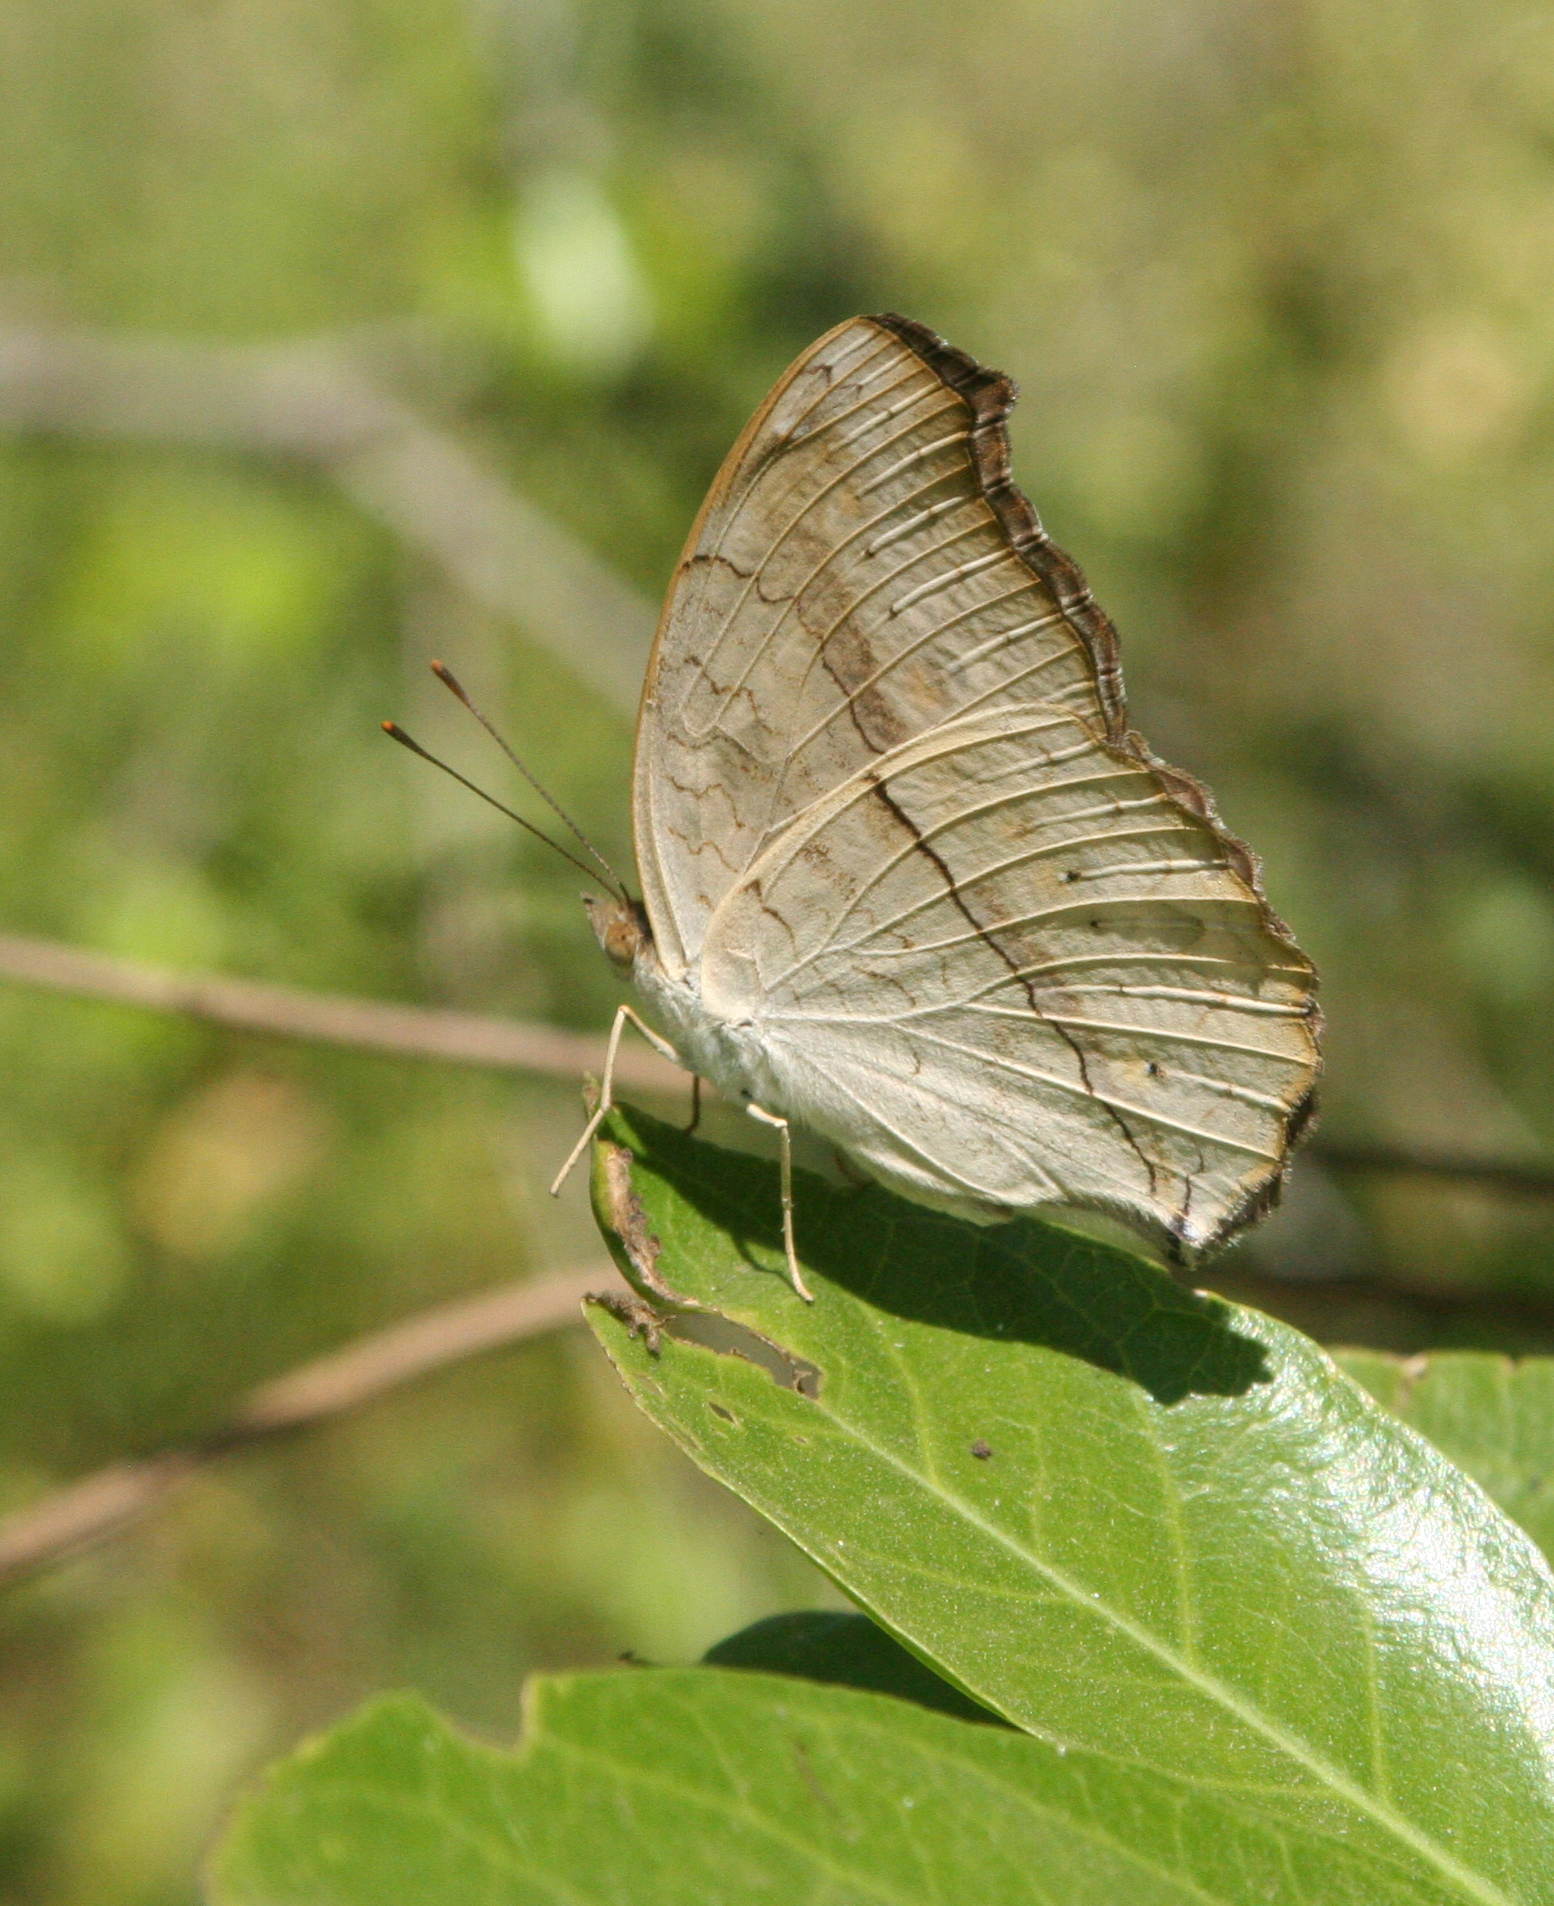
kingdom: Animalia
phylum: Arthropoda
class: Insecta
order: Lepidoptera
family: Nymphalidae
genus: Junonia
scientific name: Junonia atlites
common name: Grey pansy
